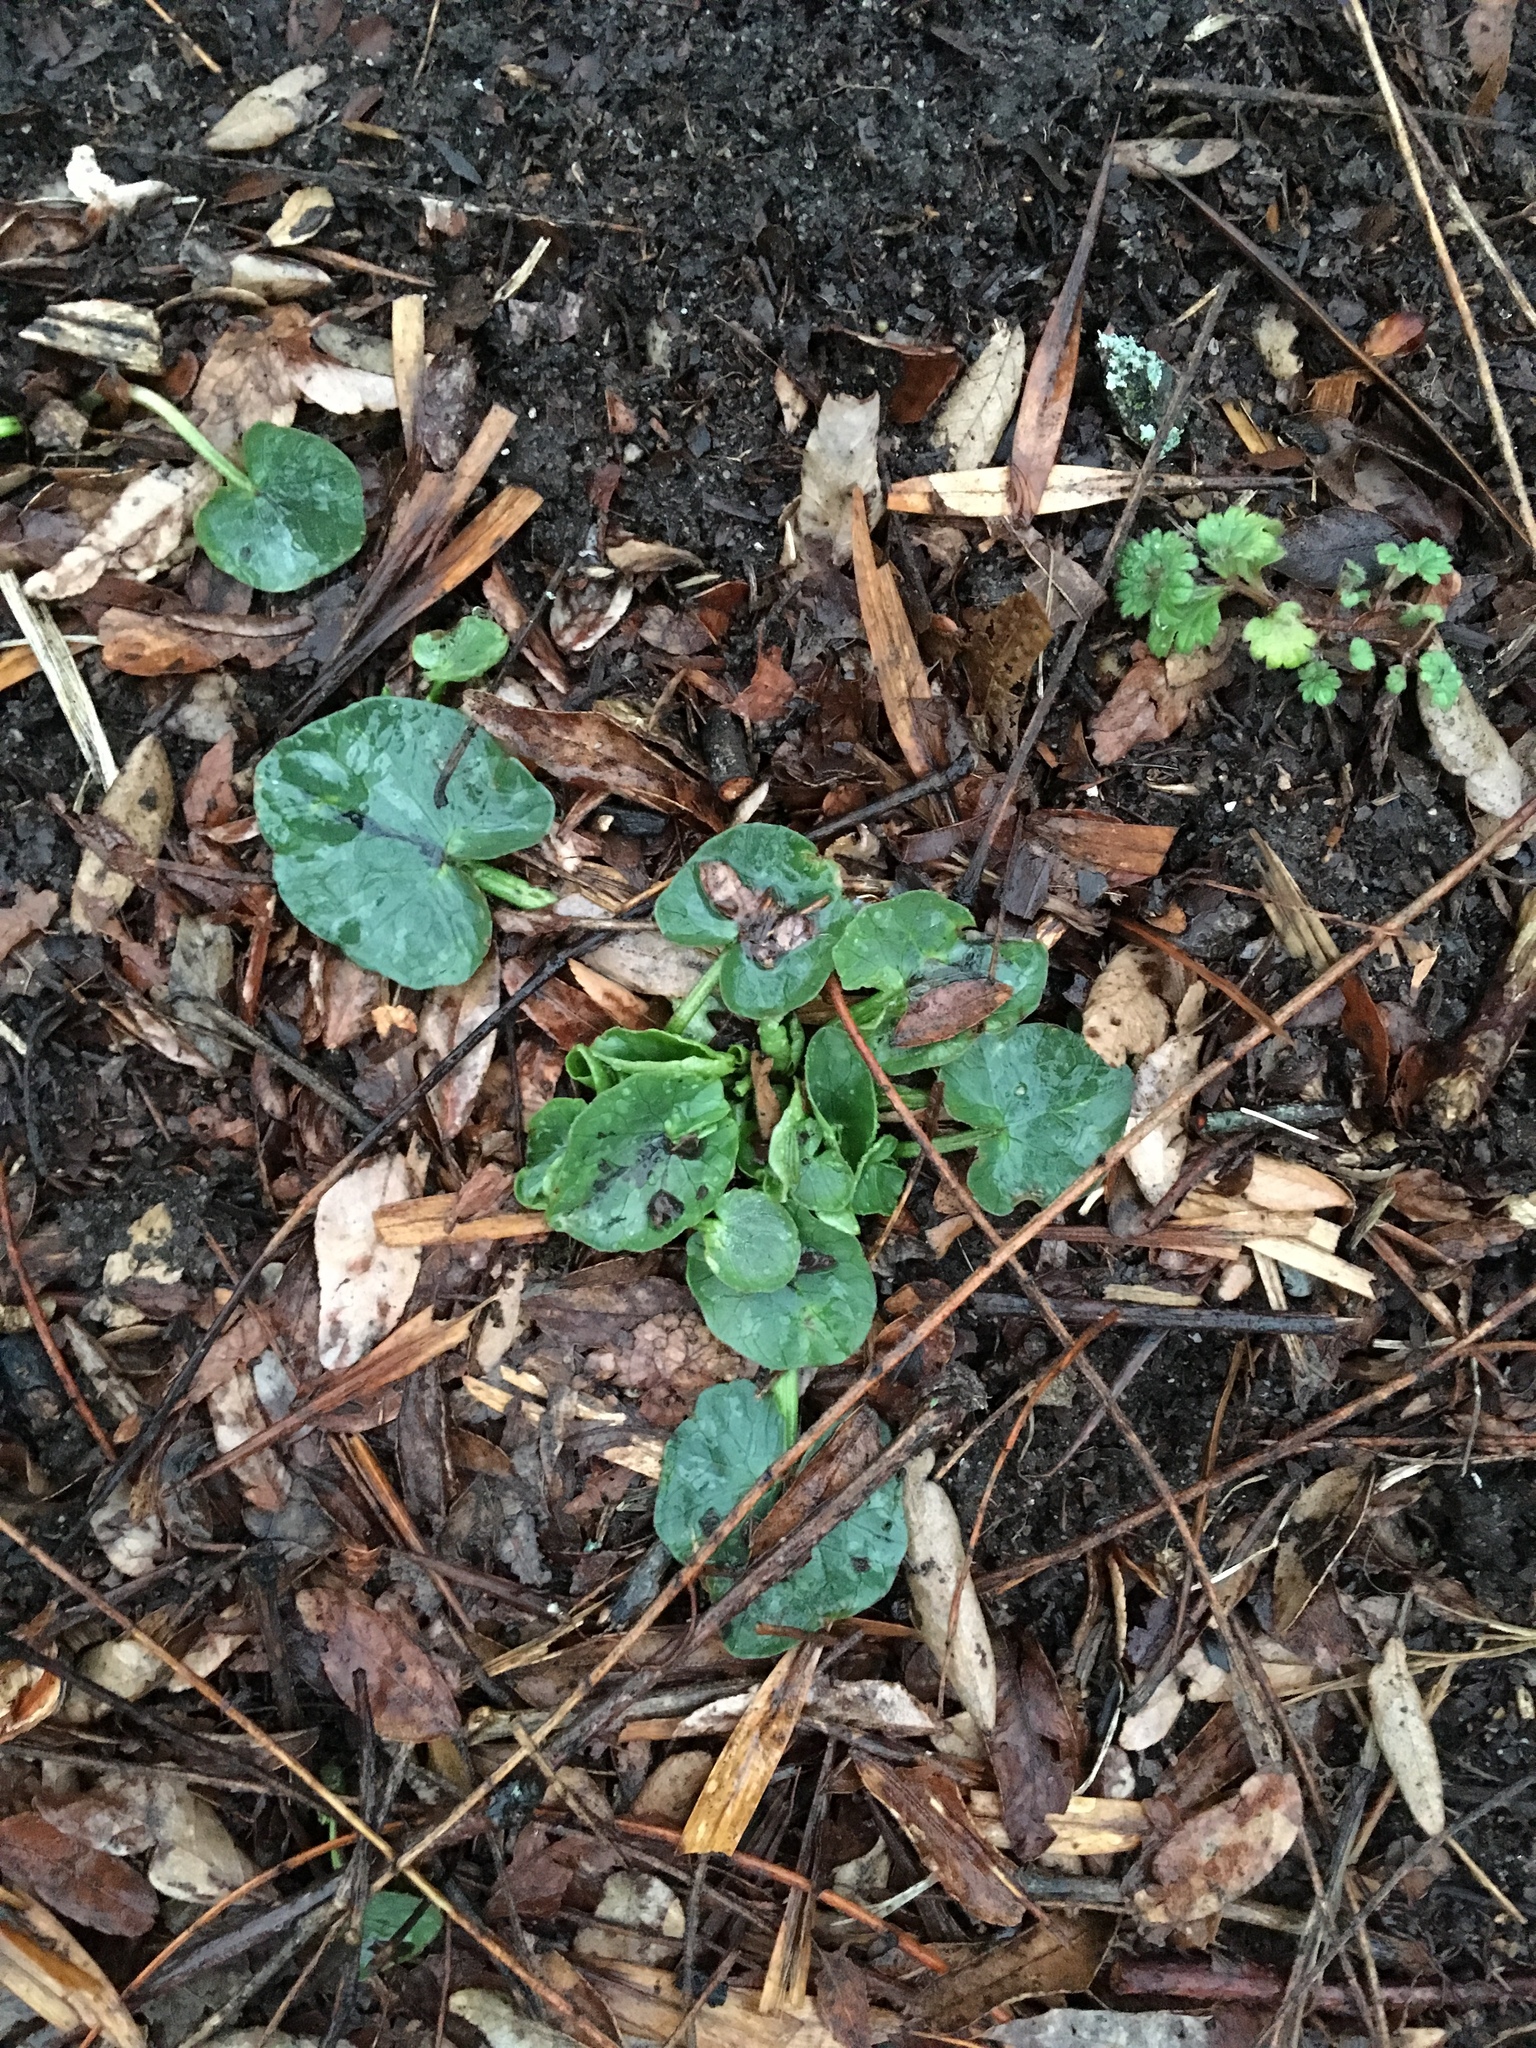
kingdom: Plantae
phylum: Tracheophyta
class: Magnoliopsida
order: Ranunculales
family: Ranunculaceae
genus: Ficaria
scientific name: Ficaria verna
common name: Lesser celandine
